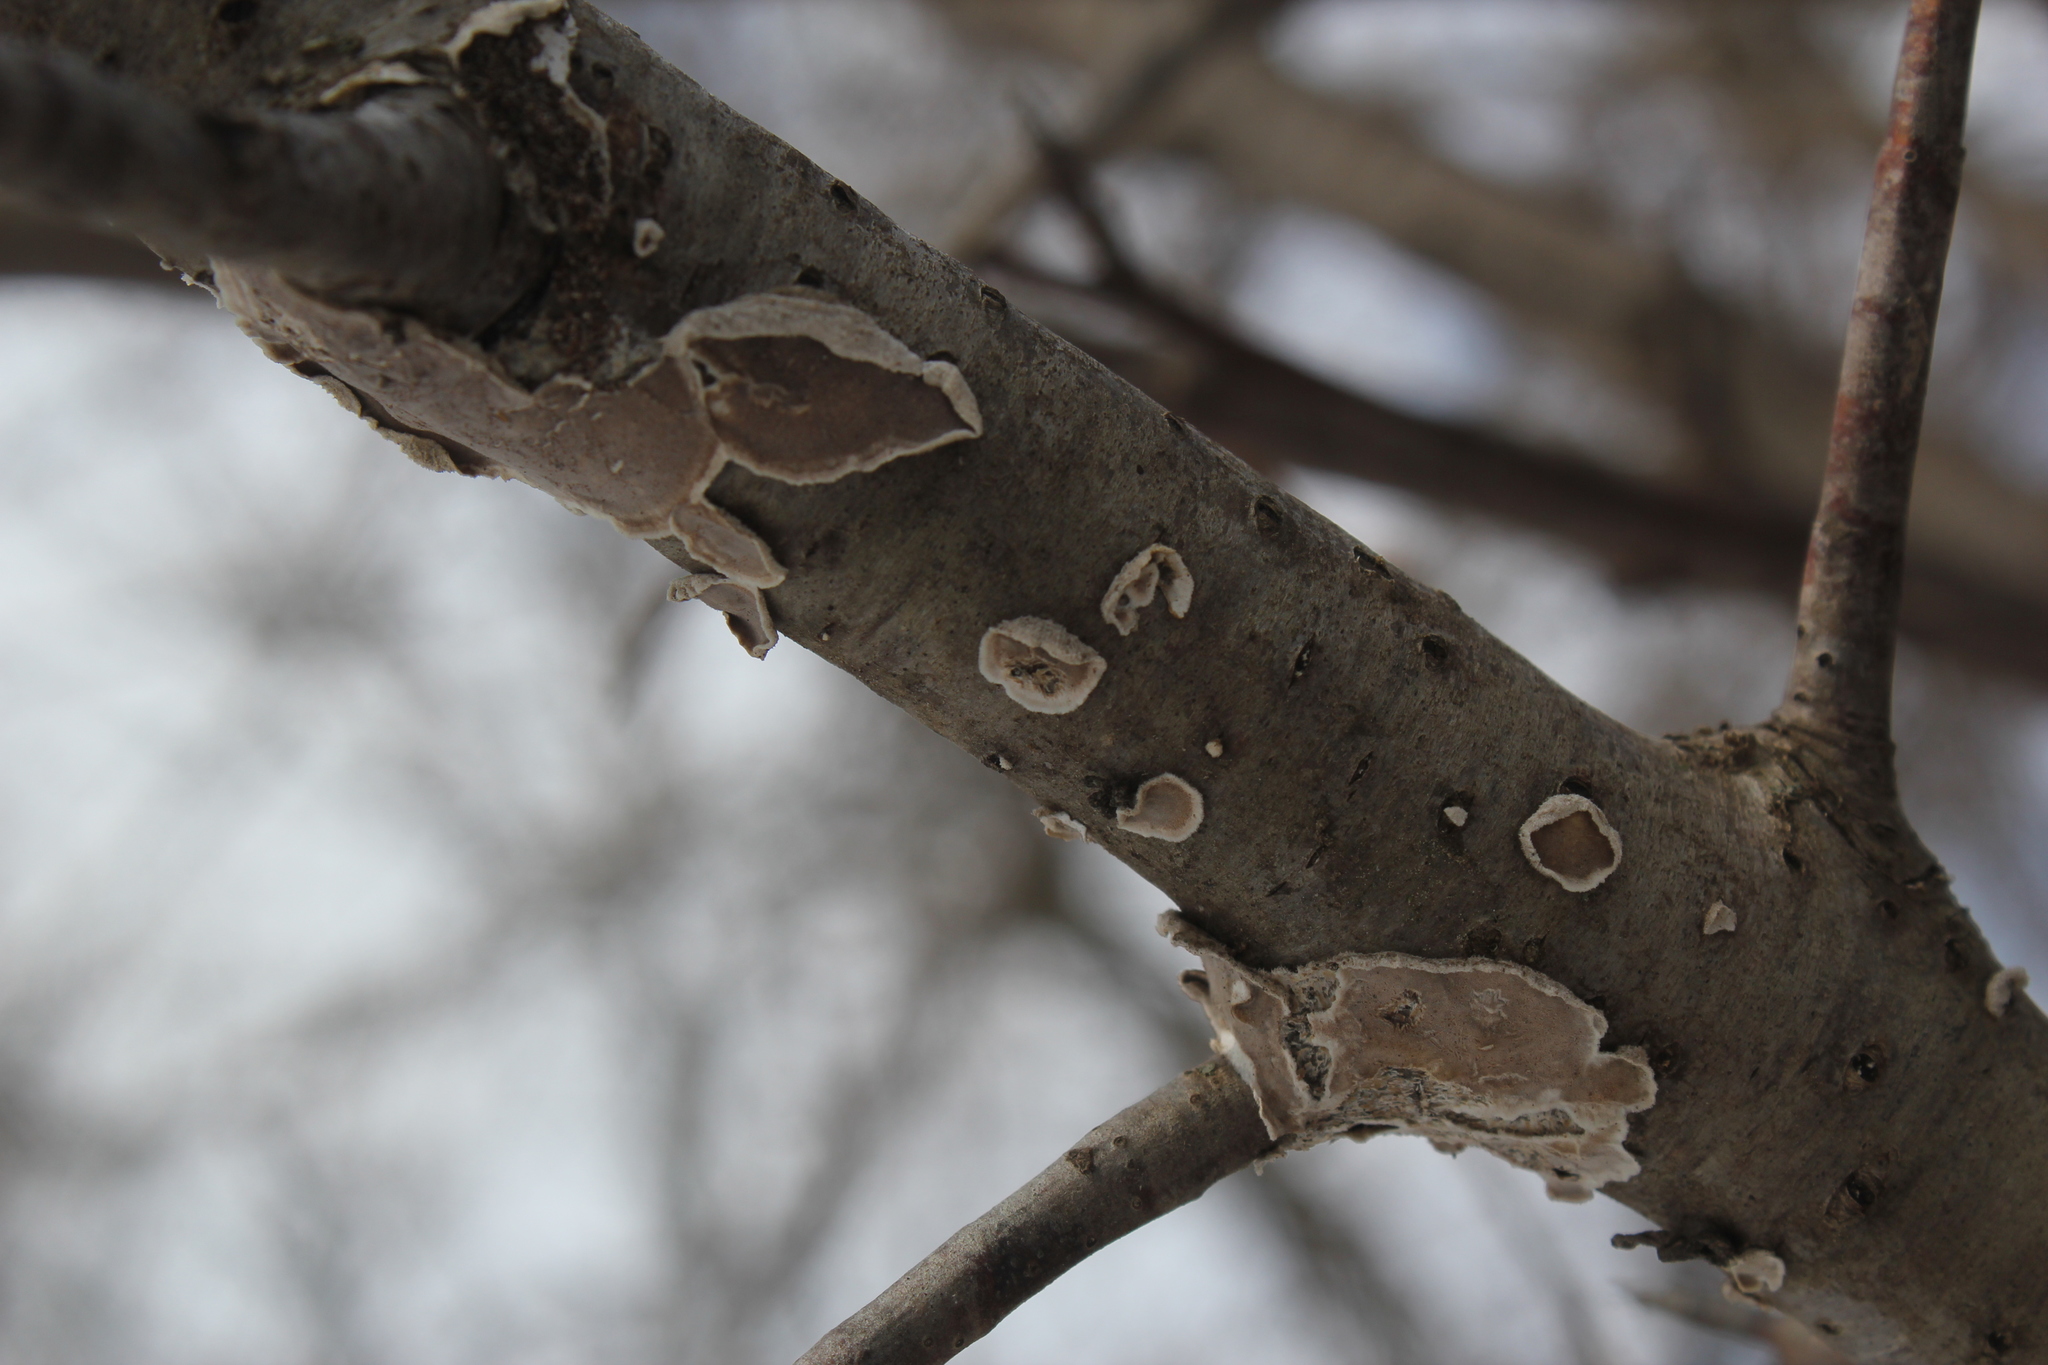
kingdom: Fungi
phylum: Basidiomycota
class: Agaricomycetes
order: Russulales
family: Peniophoraceae
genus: Peniophora
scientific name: Peniophora albobadia
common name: Giraffe spots
